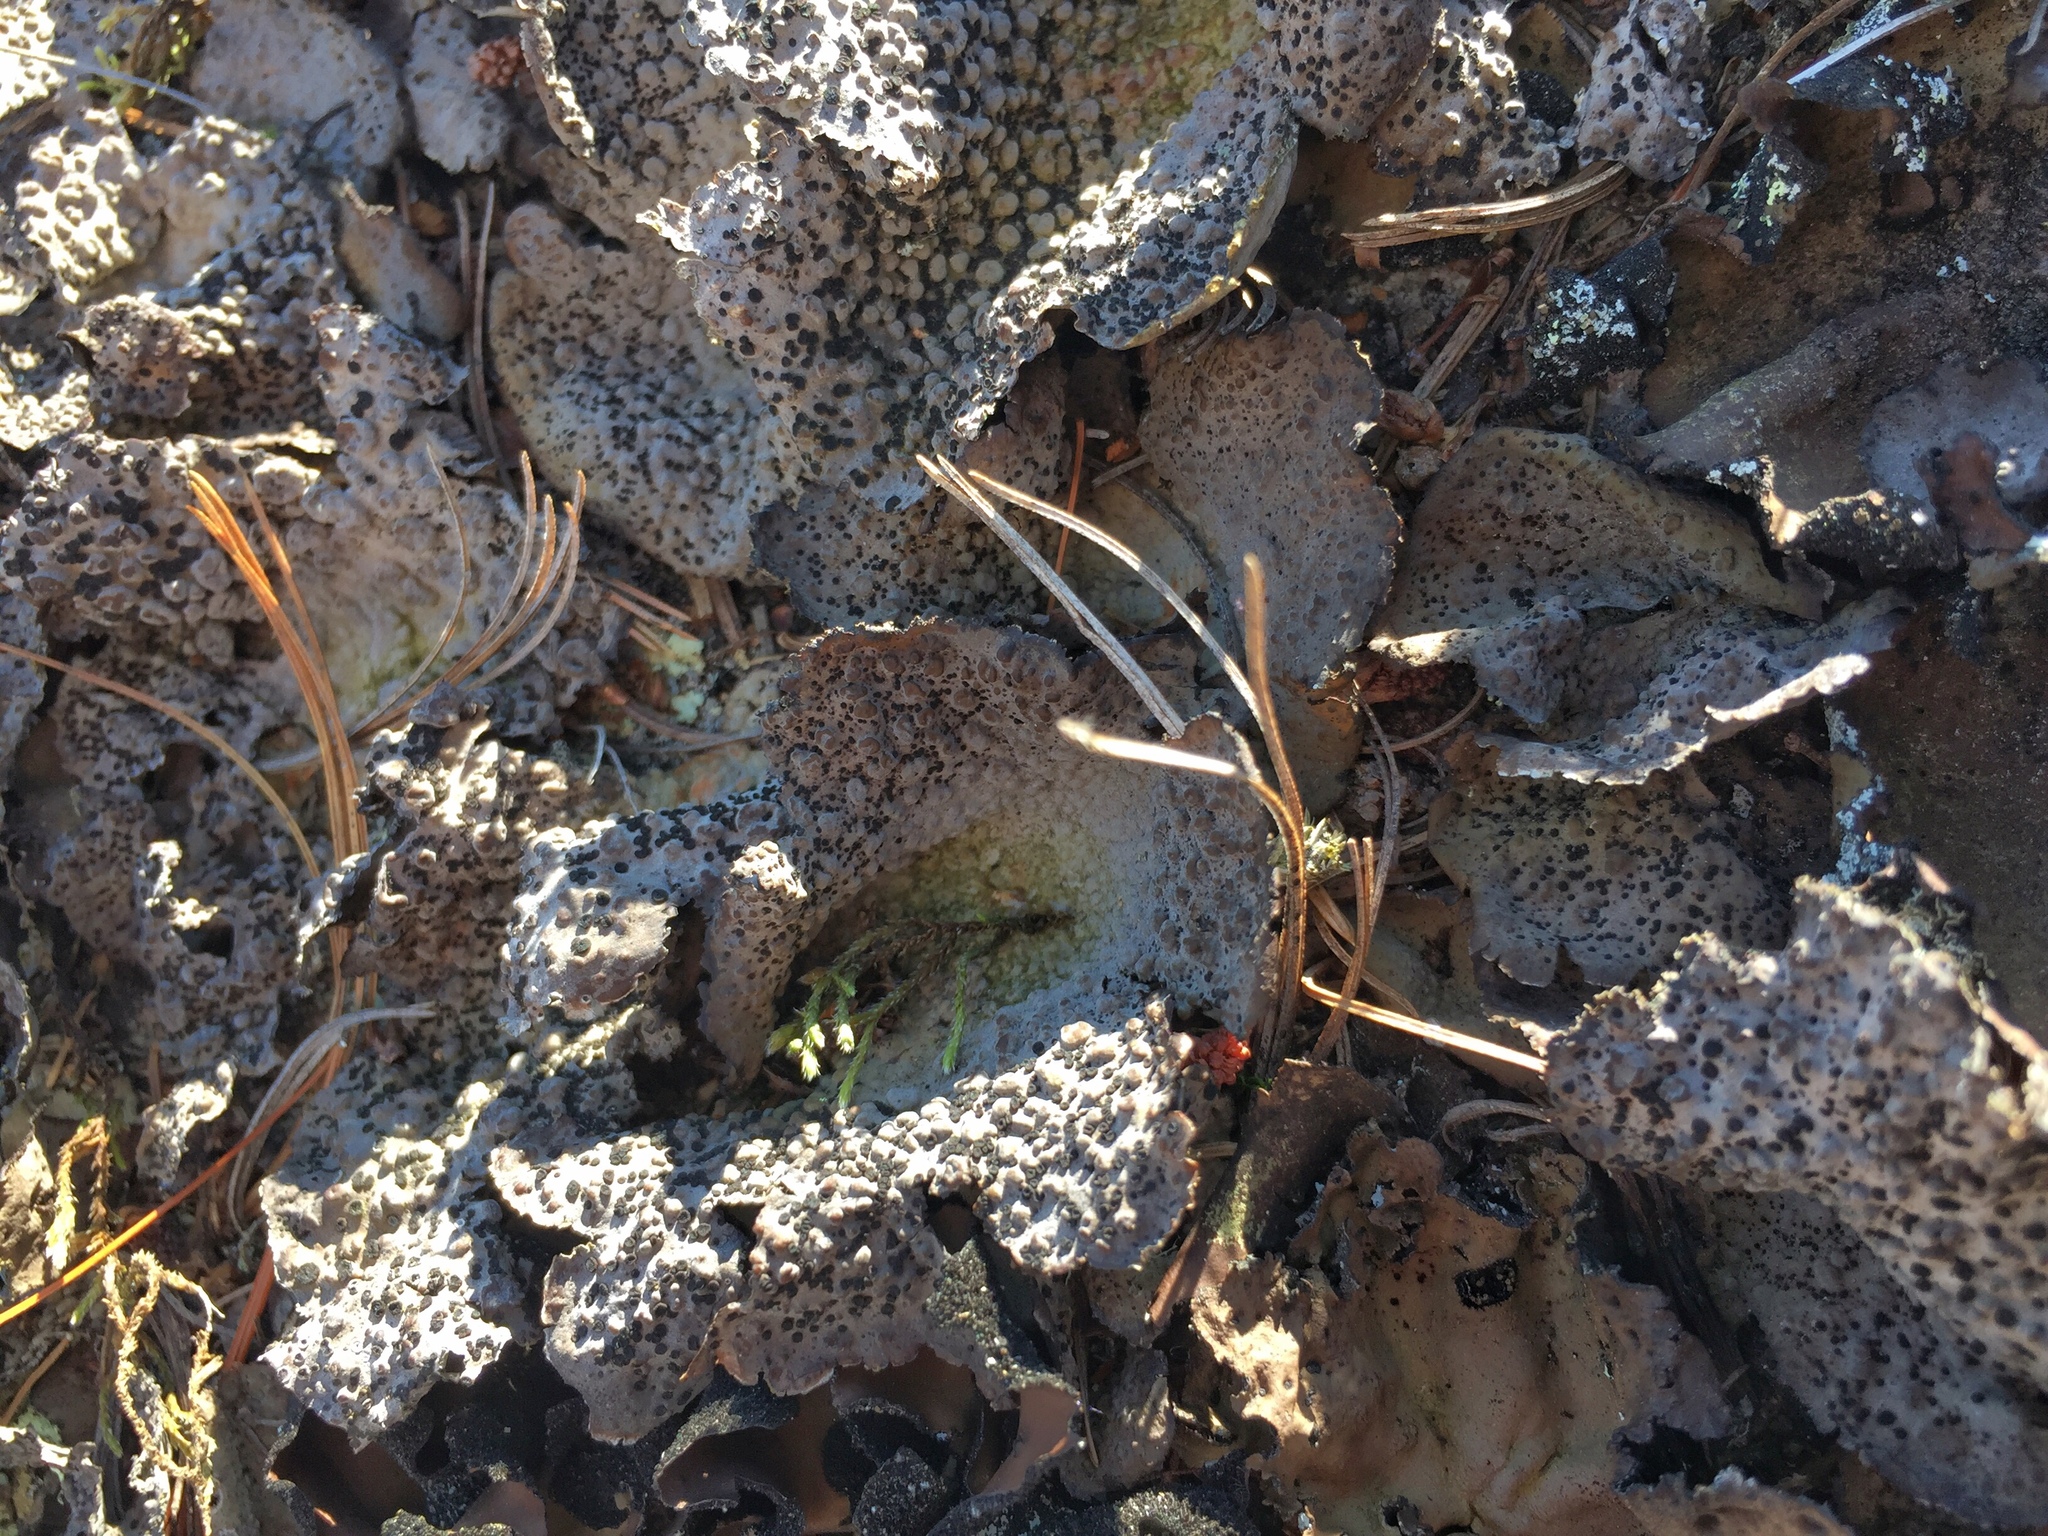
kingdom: Fungi
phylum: Ascomycota
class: Lecanoromycetes
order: Umbilicariales
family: Umbilicariaceae
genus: Lasallia
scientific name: Lasallia papulosa
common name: Common toadskin lichen
